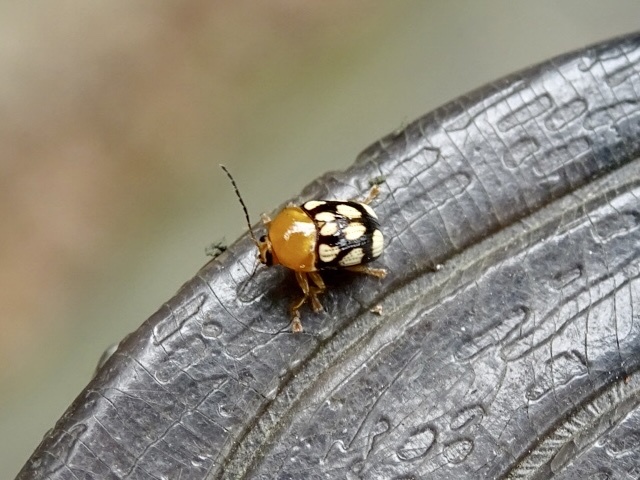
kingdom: Animalia
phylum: Arthropoda
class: Insecta
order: Coleoptera
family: Chrysomelidae
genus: Cryptocephalus
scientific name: Cryptocephalus luteosignatus
